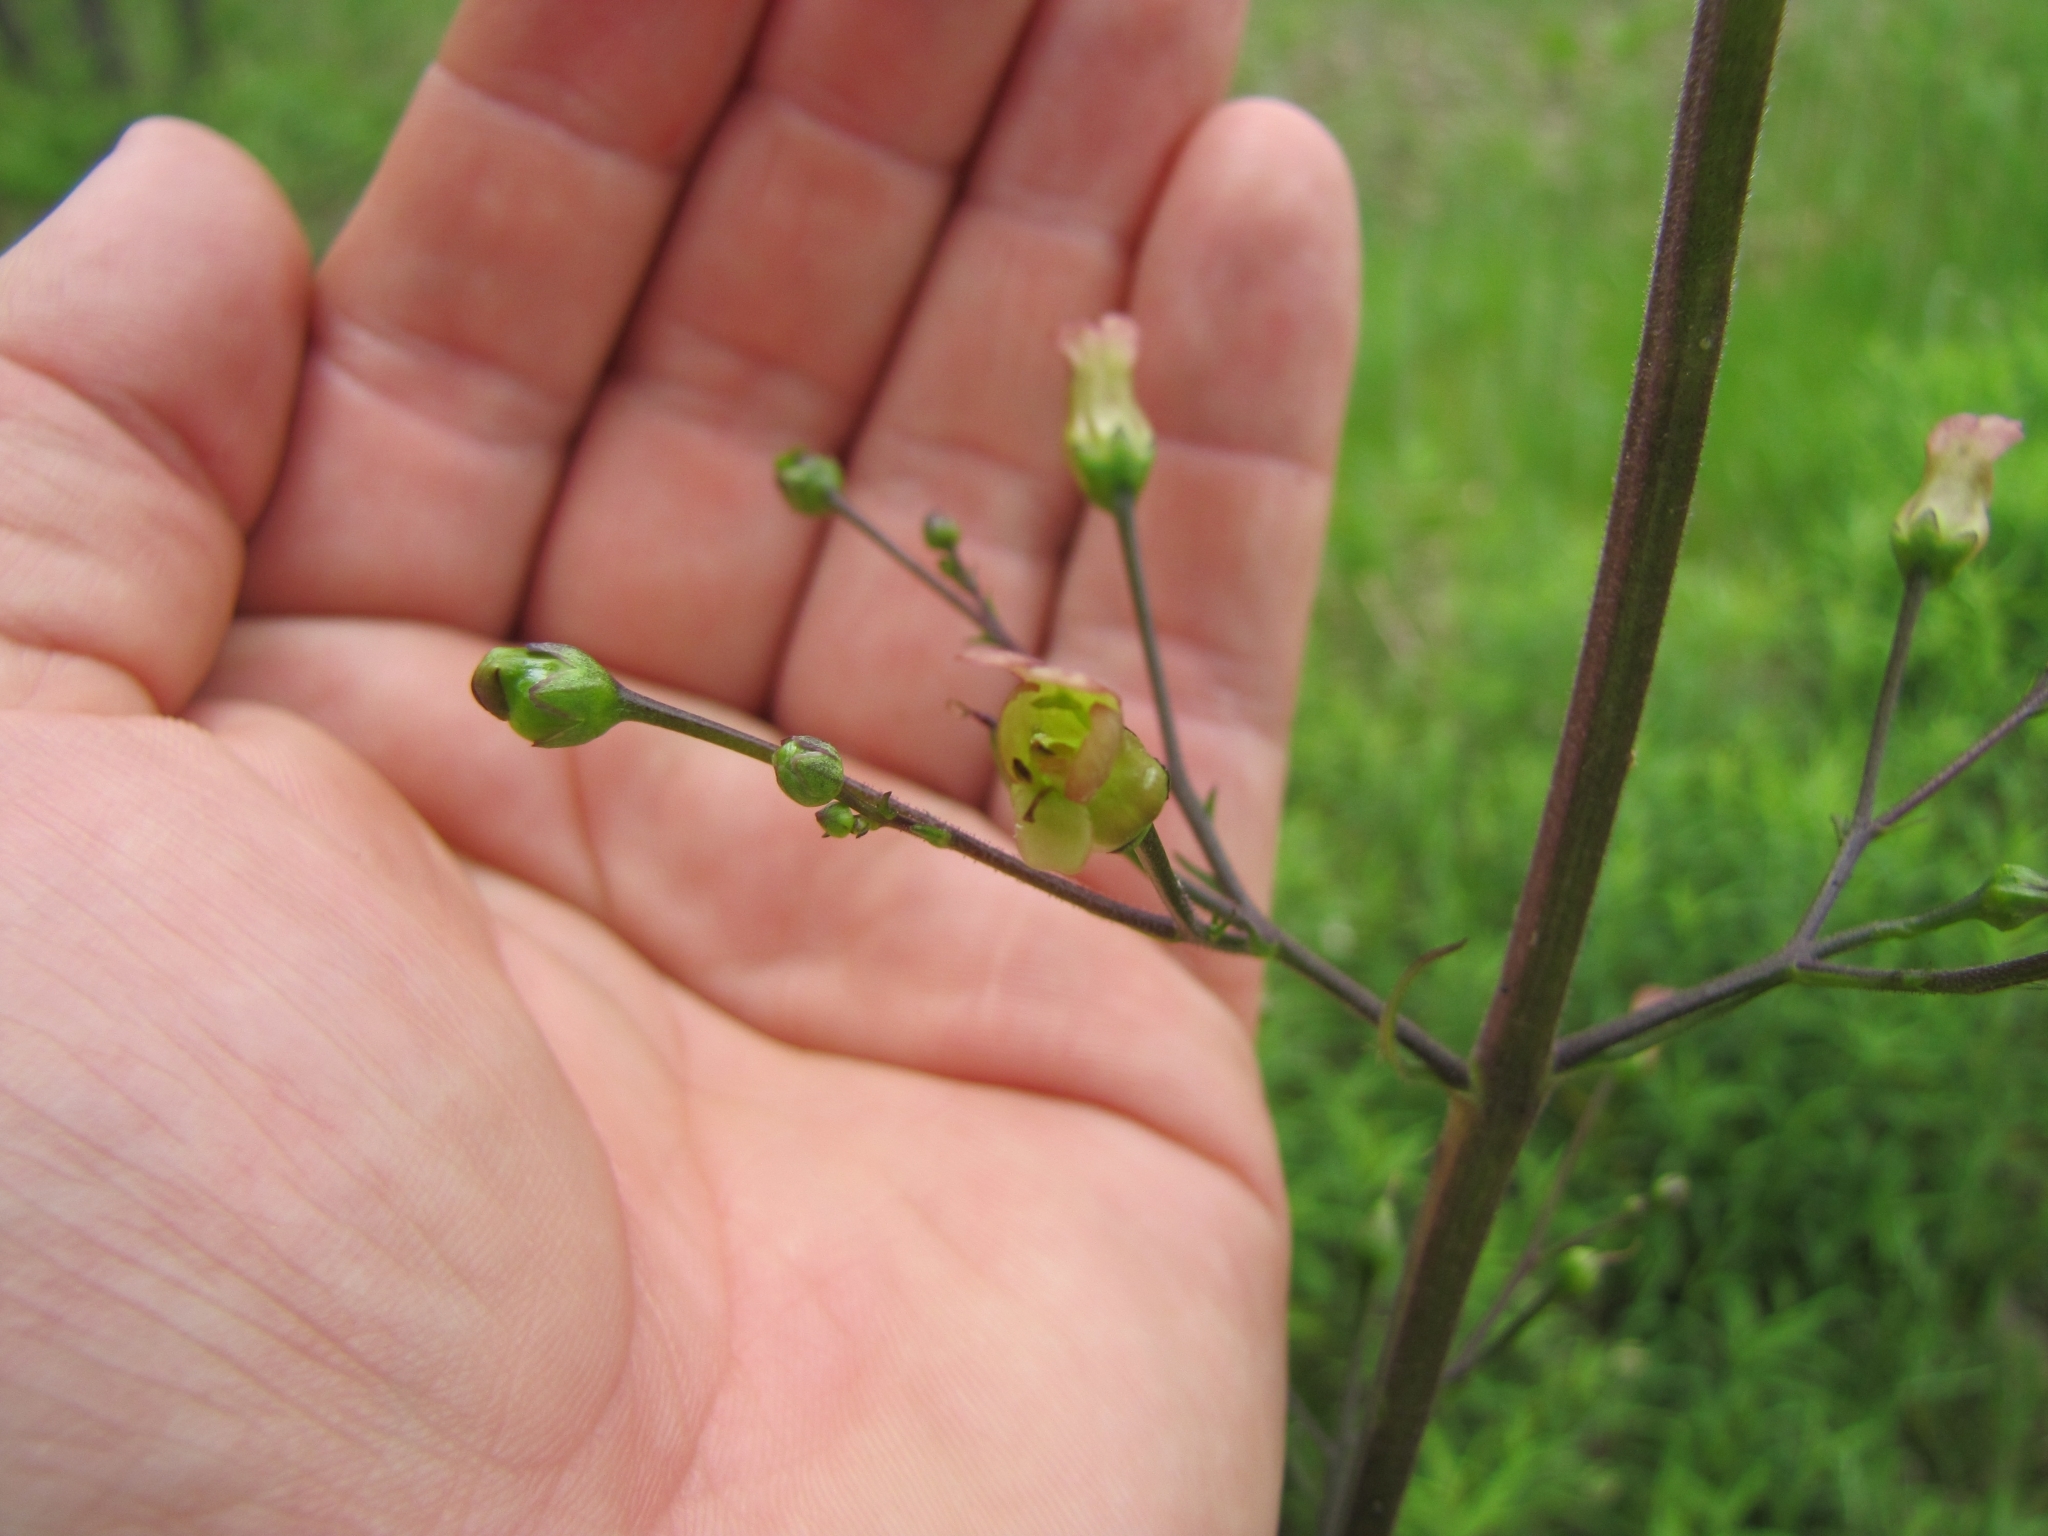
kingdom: Plantae
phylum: Tracheophyta
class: Magnoliopsida
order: Lamiales
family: Scrophulariaceae
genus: Scrophularia
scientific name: Scrophularia lanceolata
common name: American figwort
